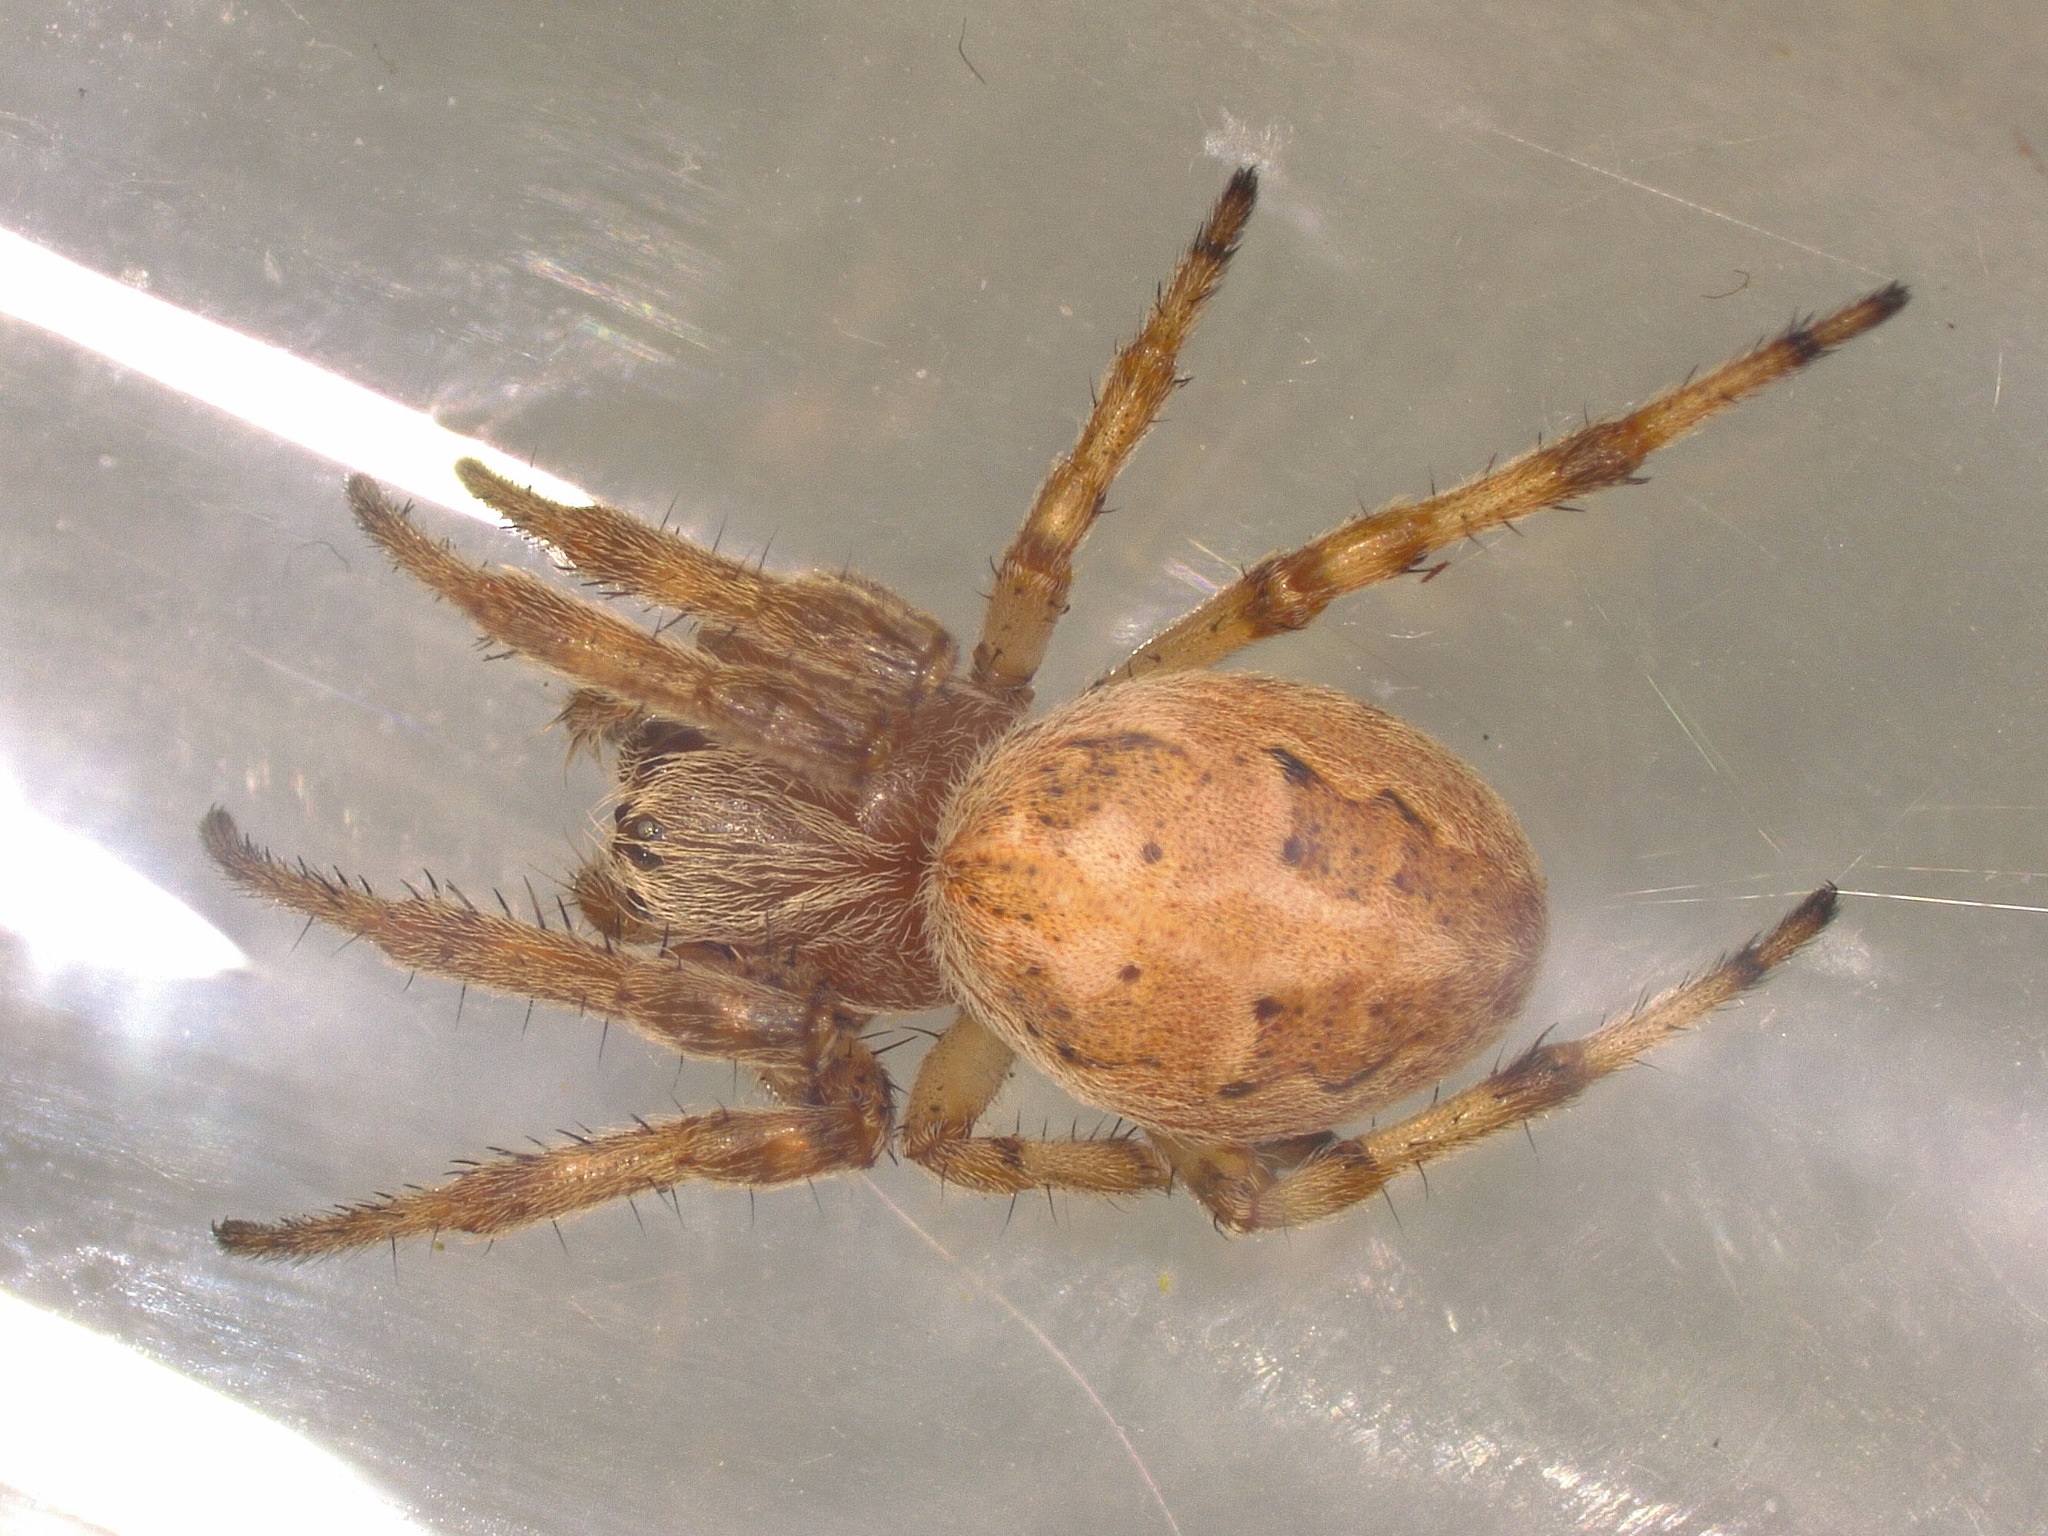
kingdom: Animalia
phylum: Arthropoda
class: Arachnida
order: Araneae
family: Araneidae
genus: Larinioides
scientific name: Larinioides cornutus
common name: Furrow orbweaver
